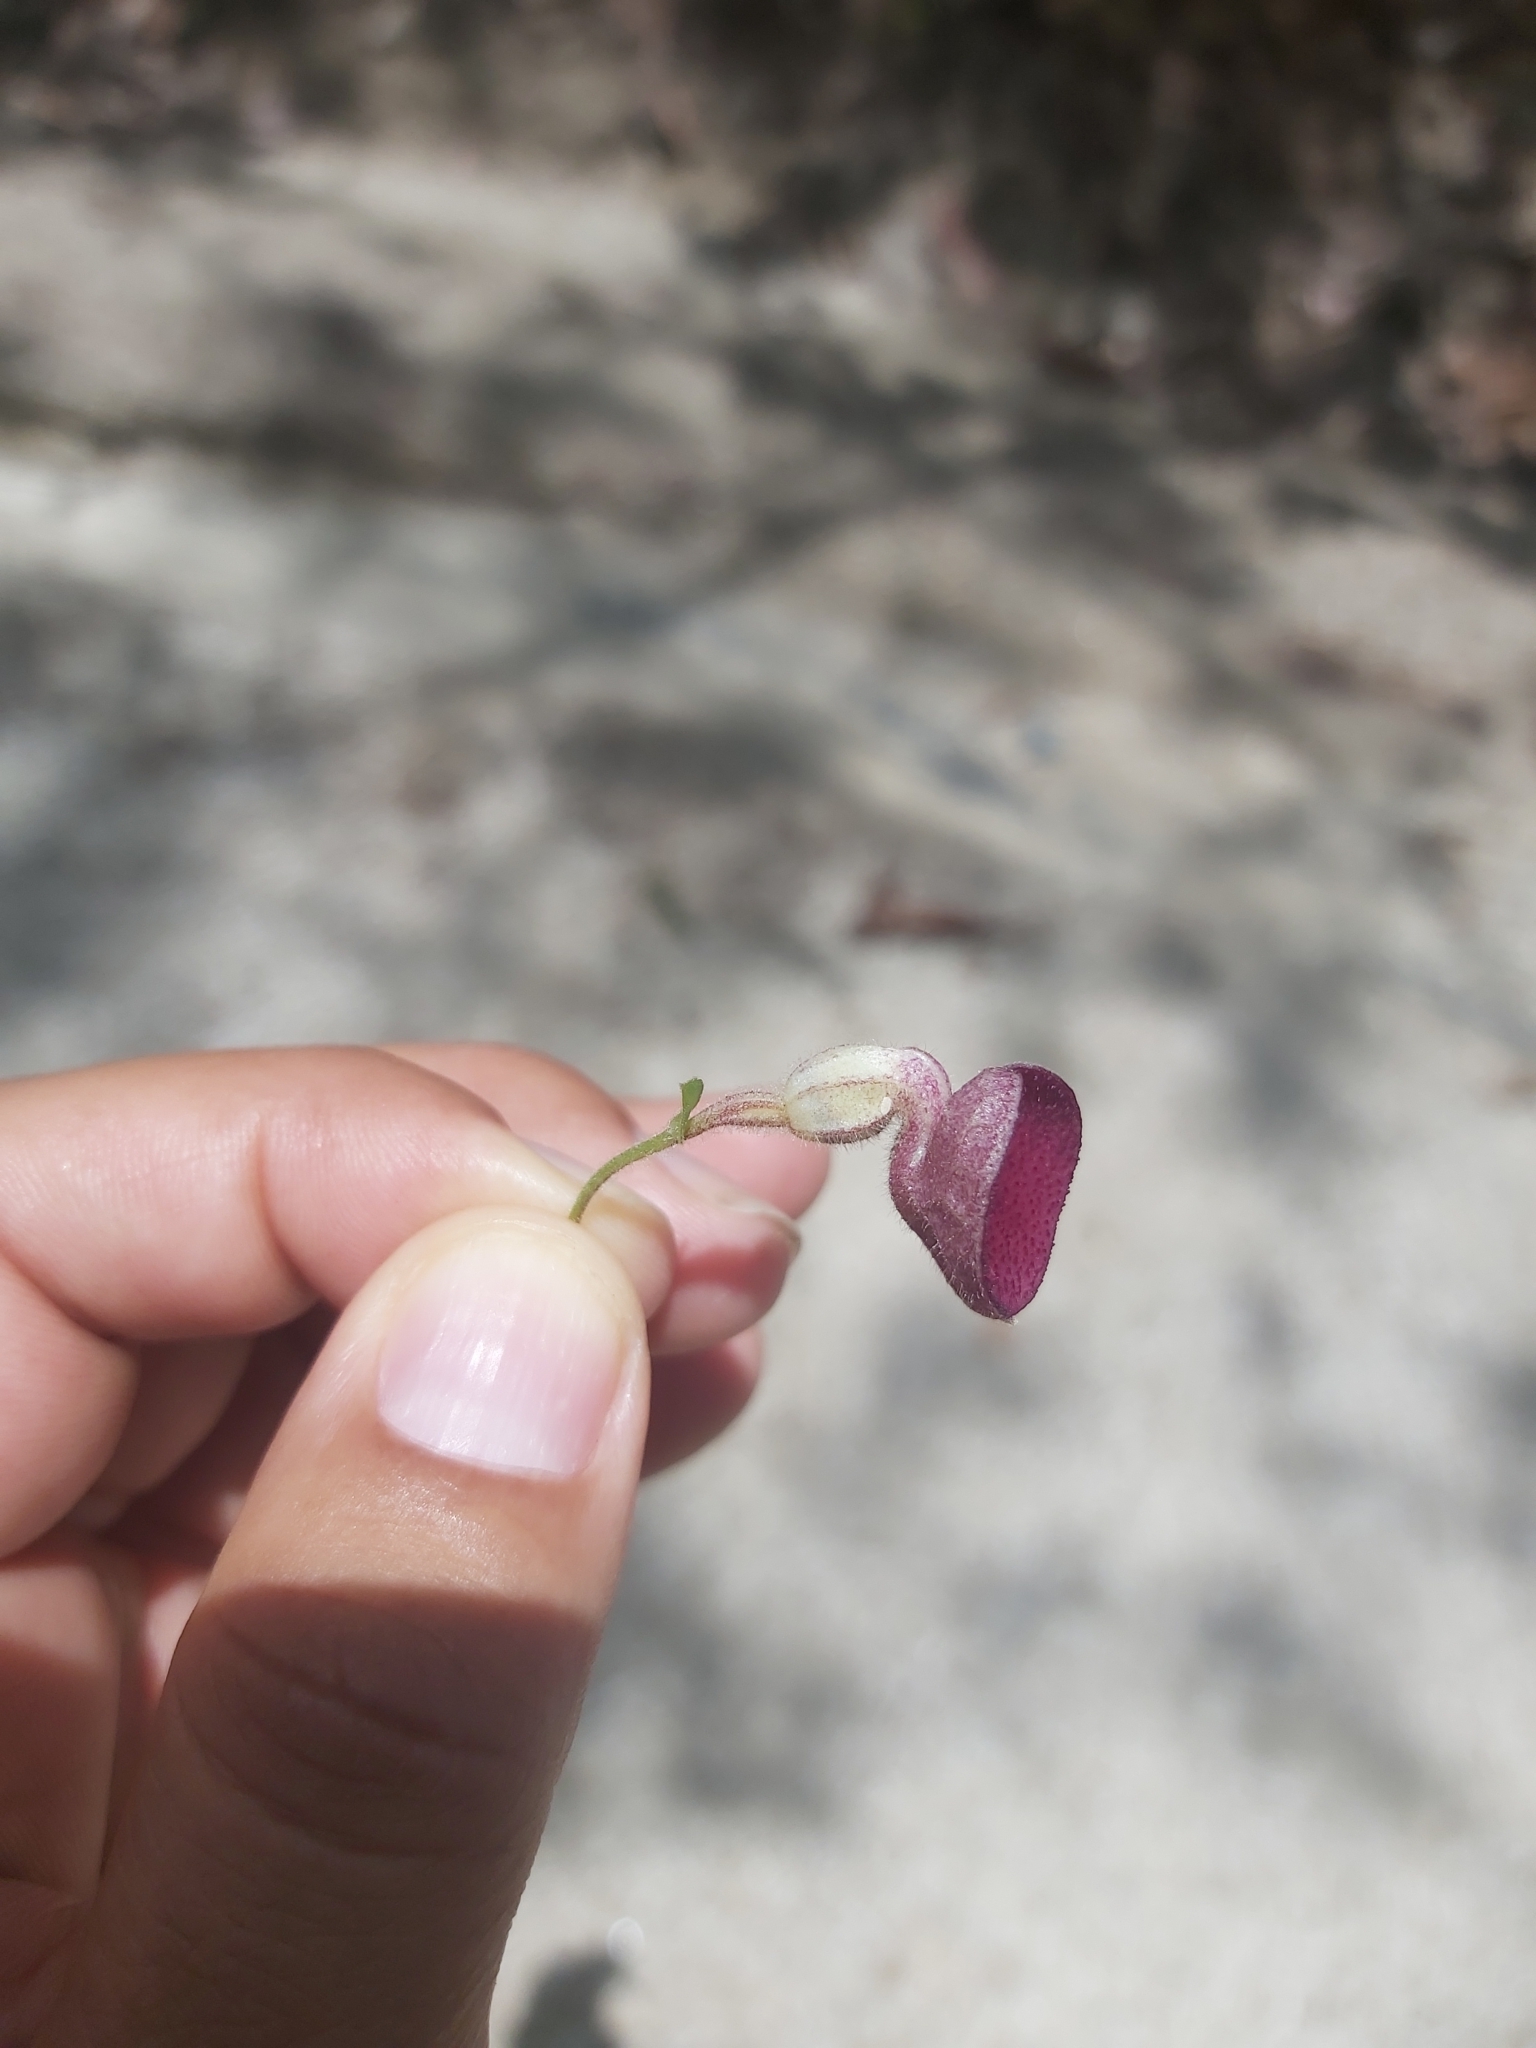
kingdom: Plantae
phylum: Tracheophyta
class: Magnoliopsida
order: Piperales
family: Aristolochiaceae
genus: Aristolochia
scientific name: Aristolochia tuitensis
